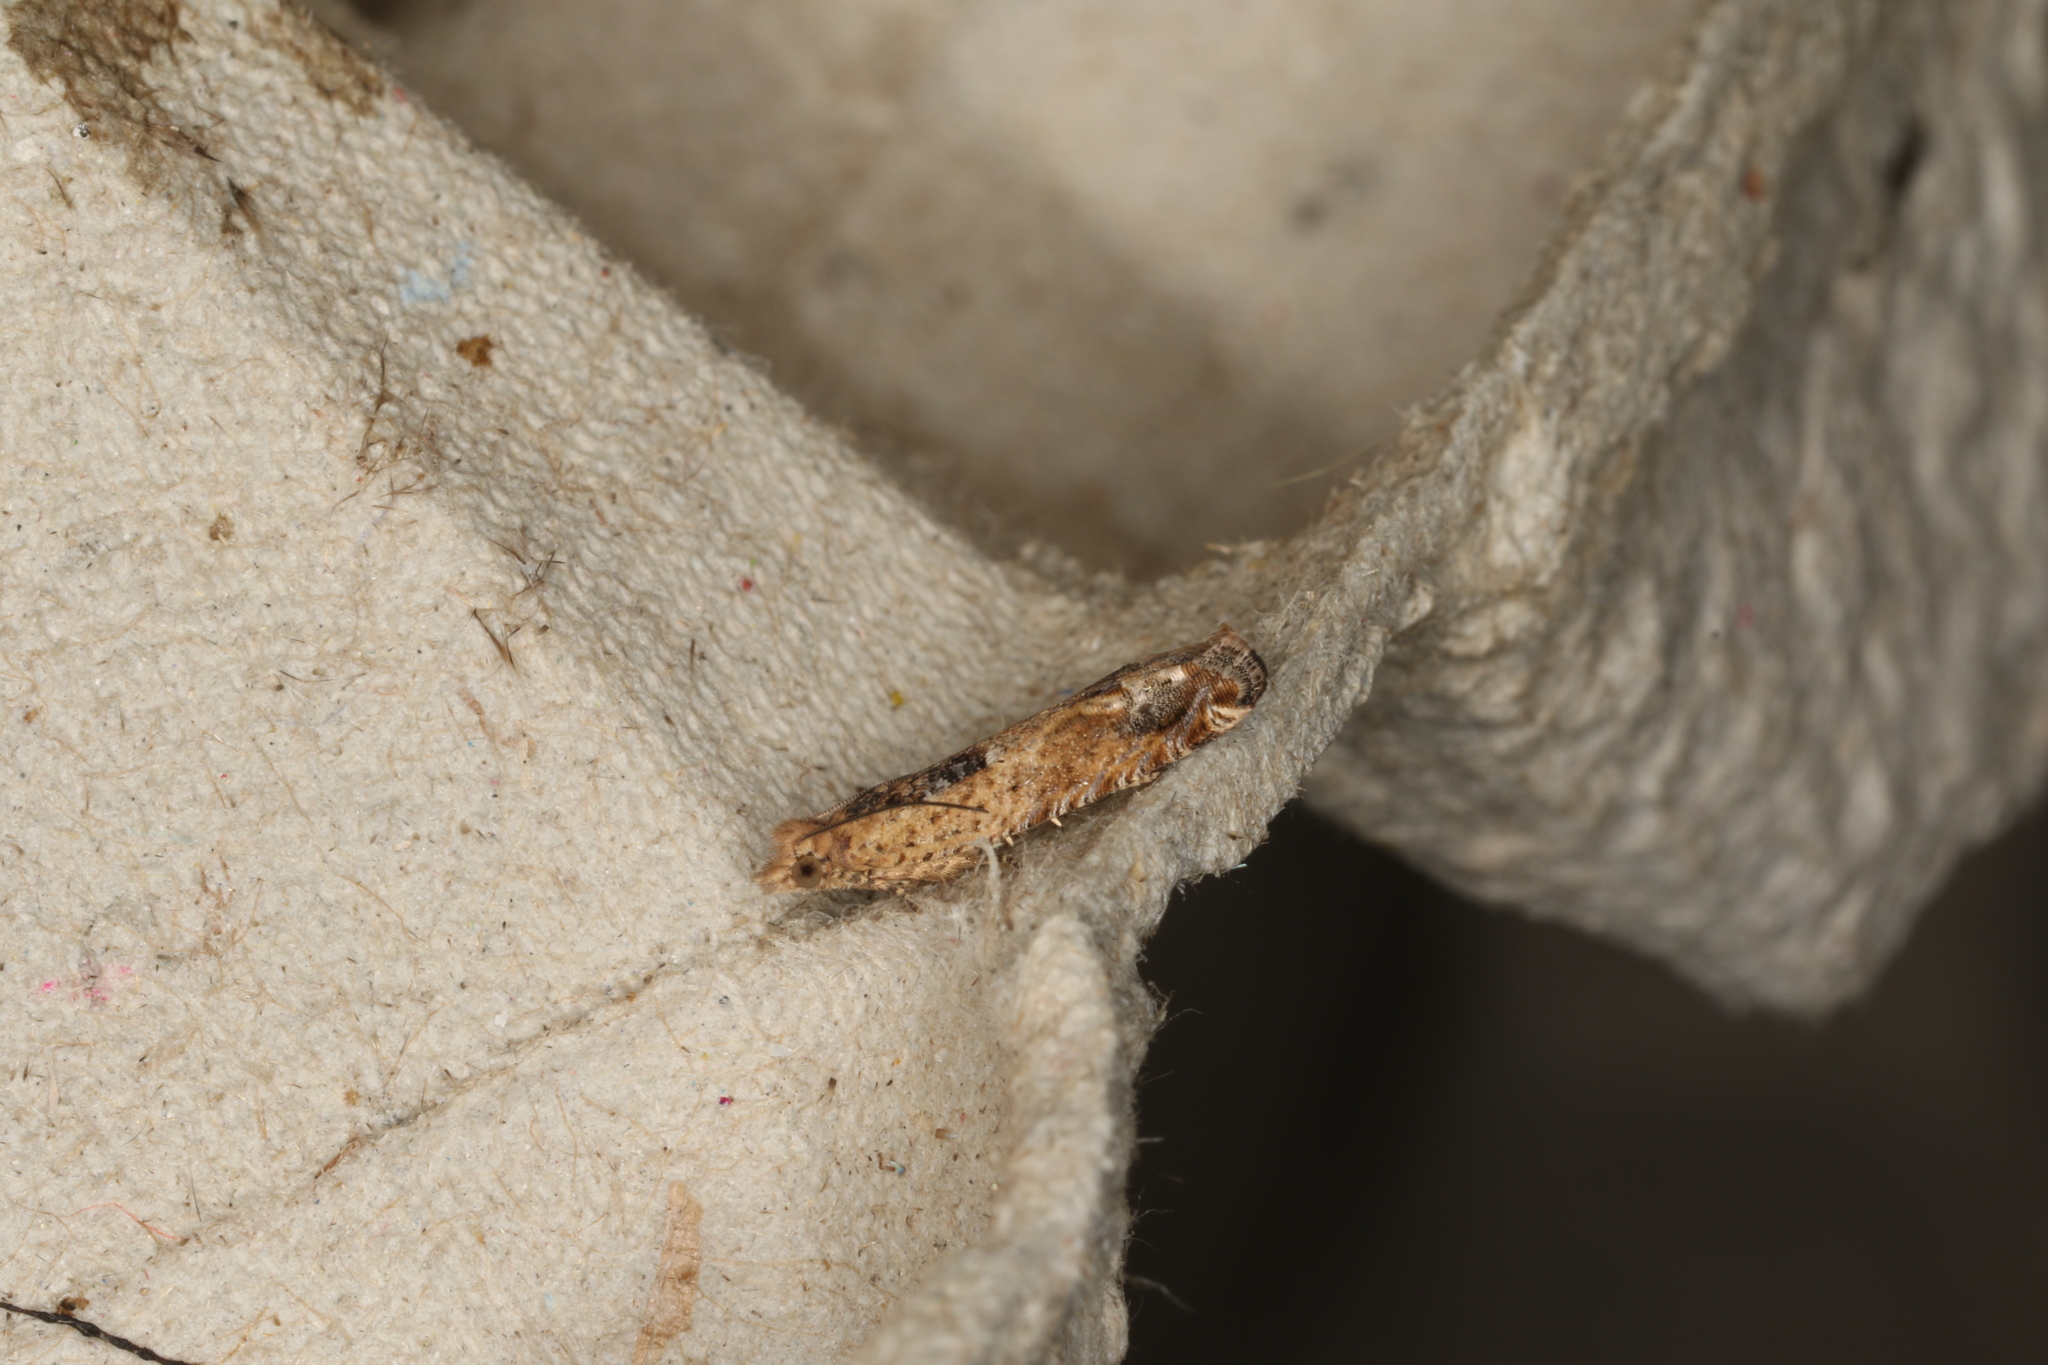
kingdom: Animalia
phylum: Arthropoda
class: Insecta
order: Lepidoptera
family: Tortricidae
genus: Crocidosema
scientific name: Crocidosema plebejana
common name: Southern bell
